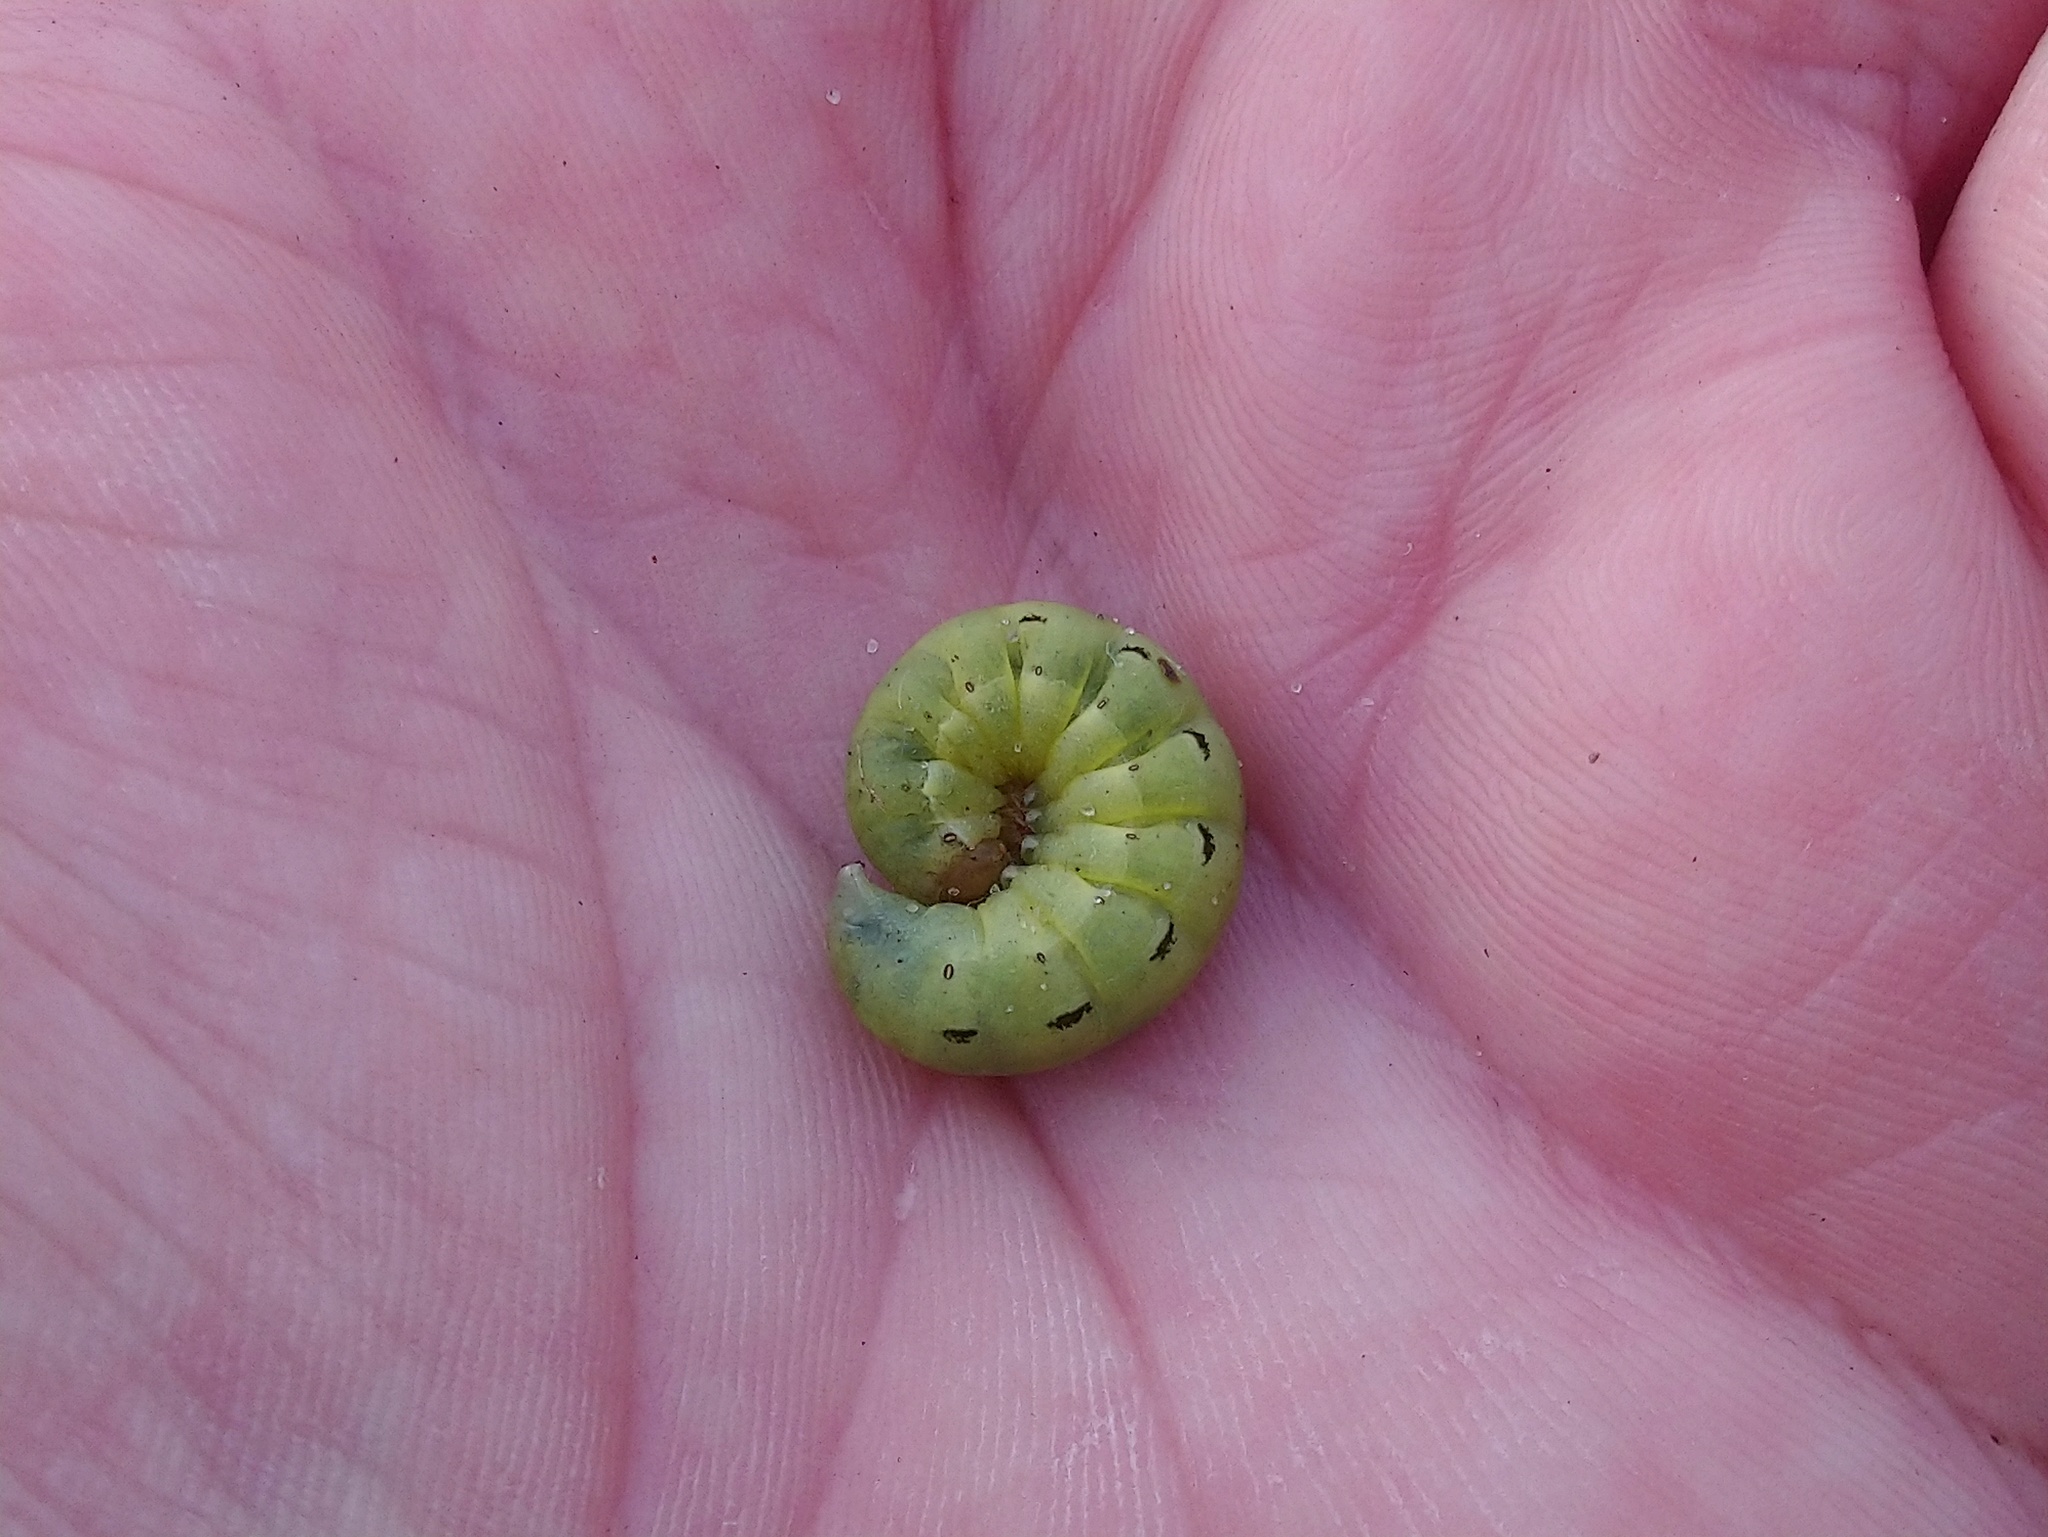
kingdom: Animalia
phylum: Arthropoda
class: Insecta
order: Lepidoptera
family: Noctuidae
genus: Noctua
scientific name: Noctua pronuba
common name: Large yellow underwing
